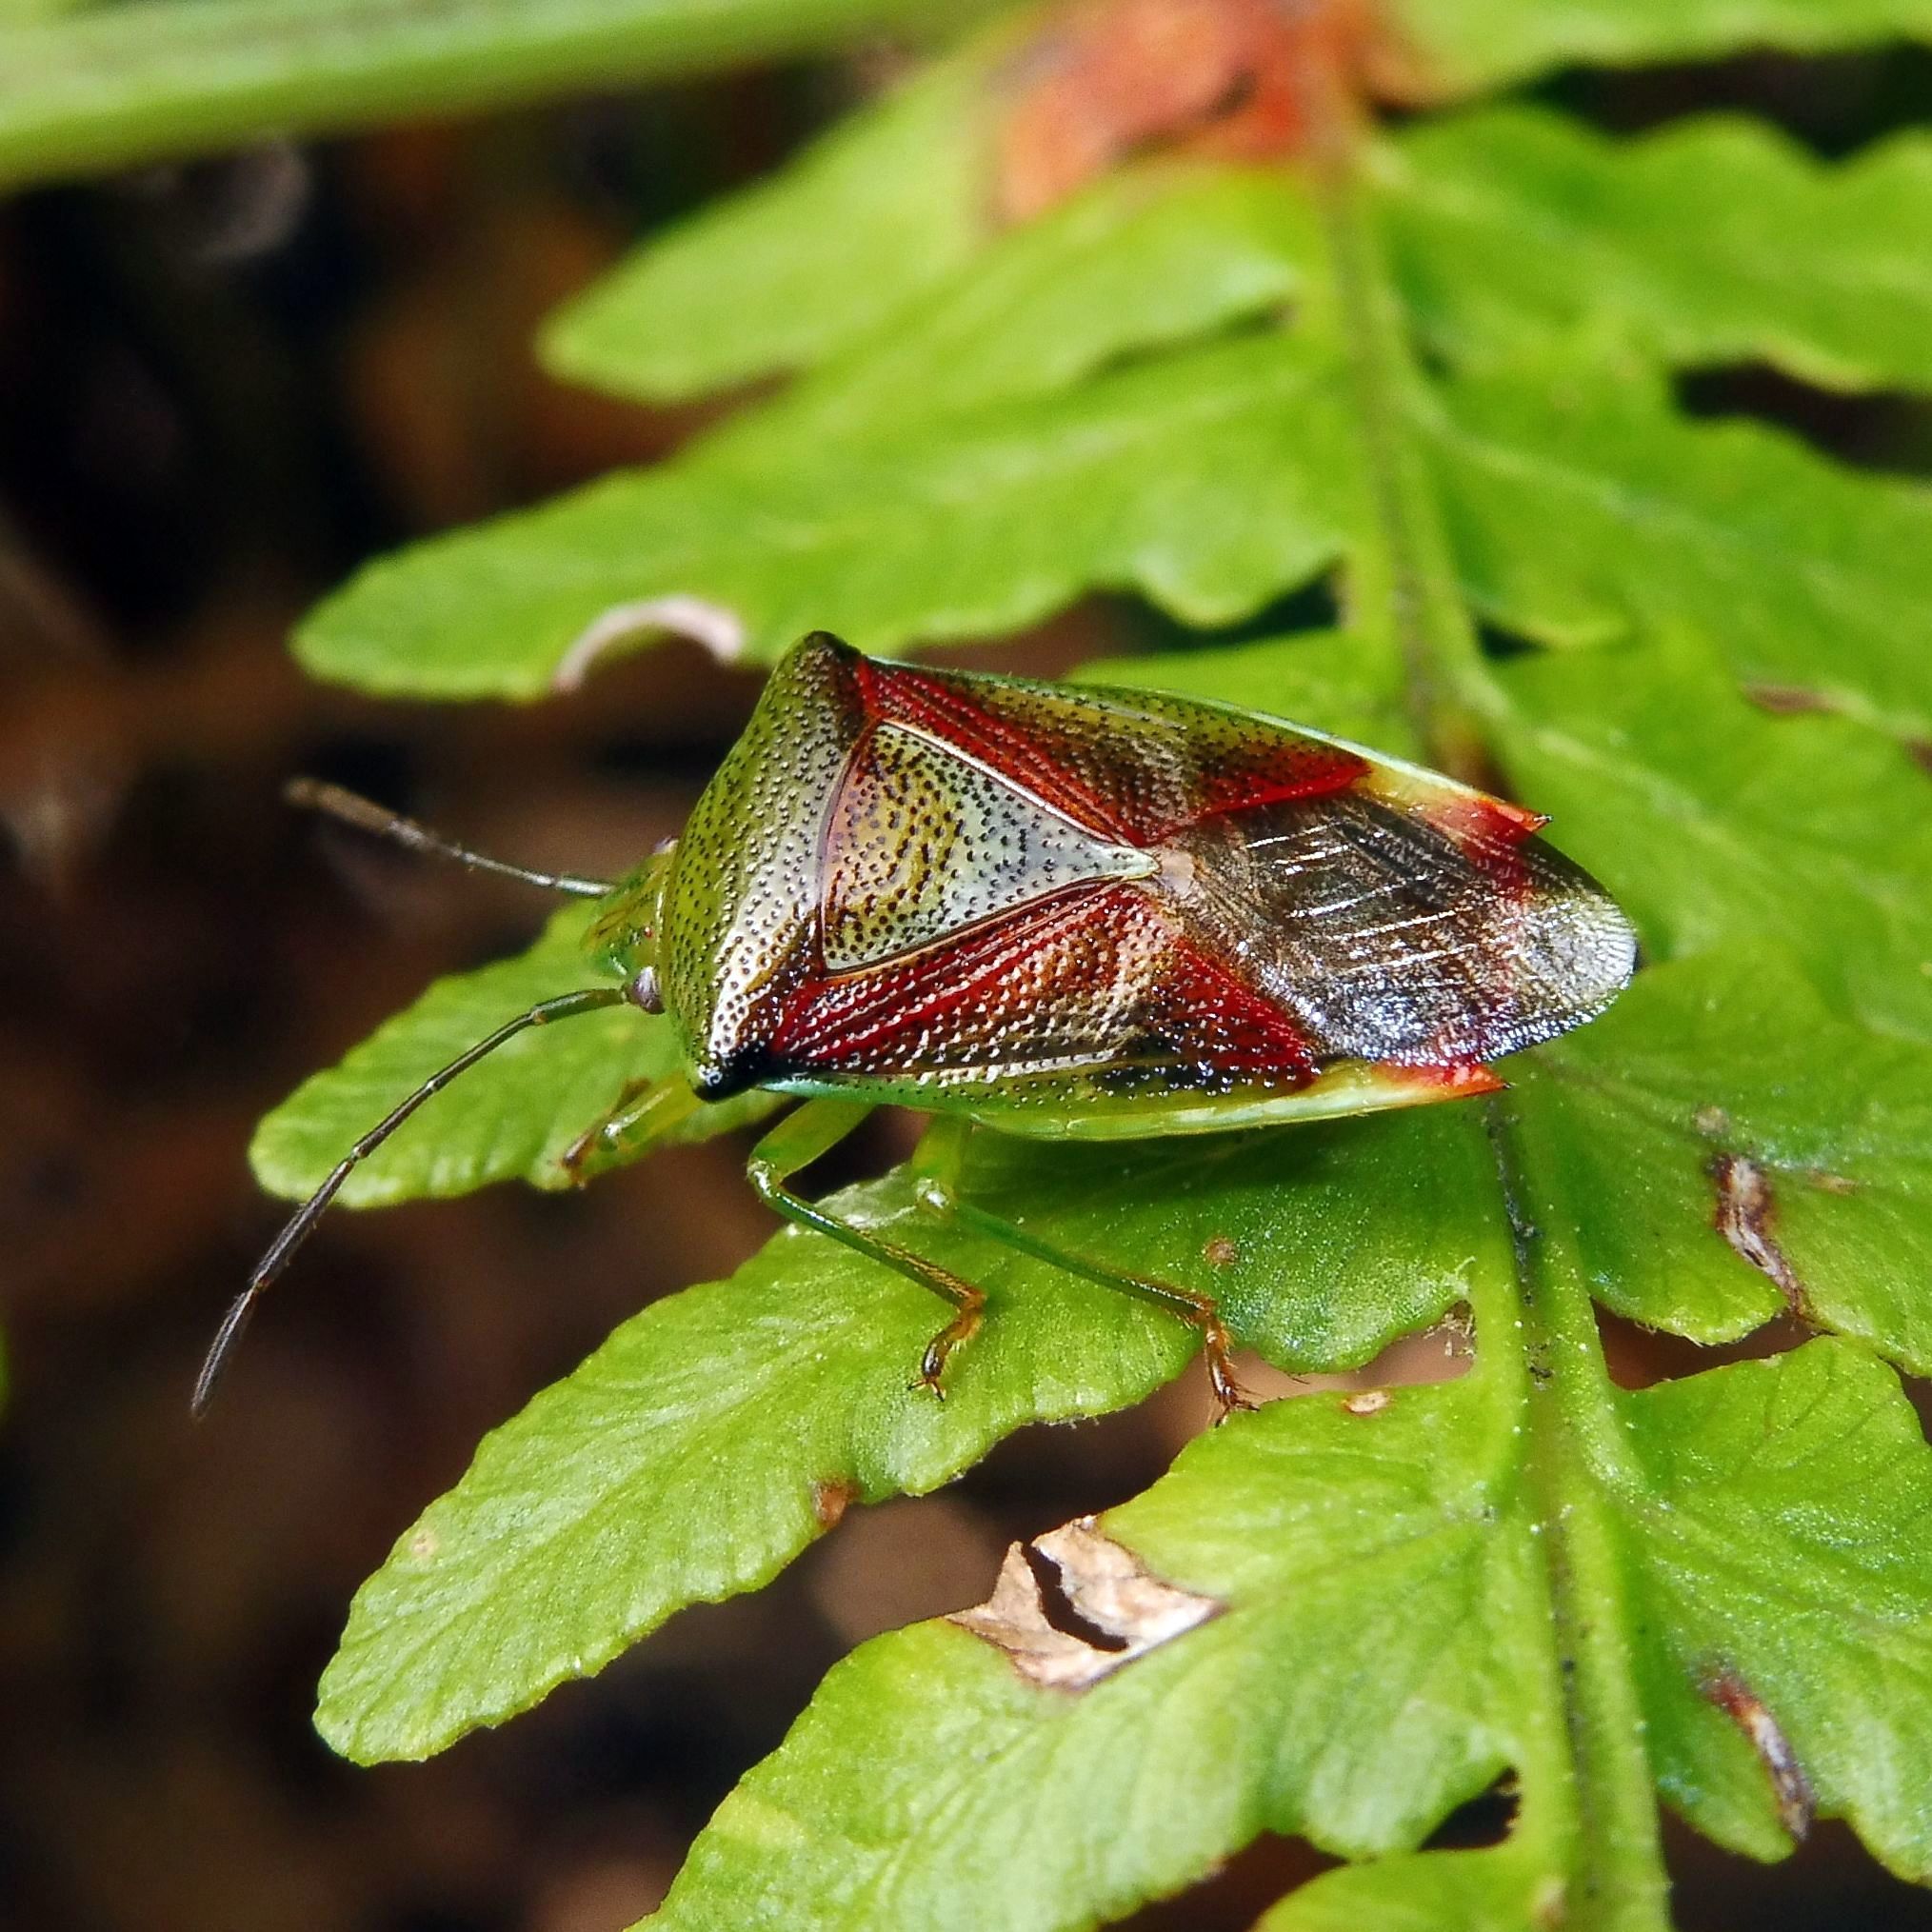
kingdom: Animalia
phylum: Arthropoda
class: Insecta
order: Hemiptera
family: Acanthosomatidae
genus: Elasmostethus
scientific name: Elasmostethus interstinctus
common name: Birch shieldbug
